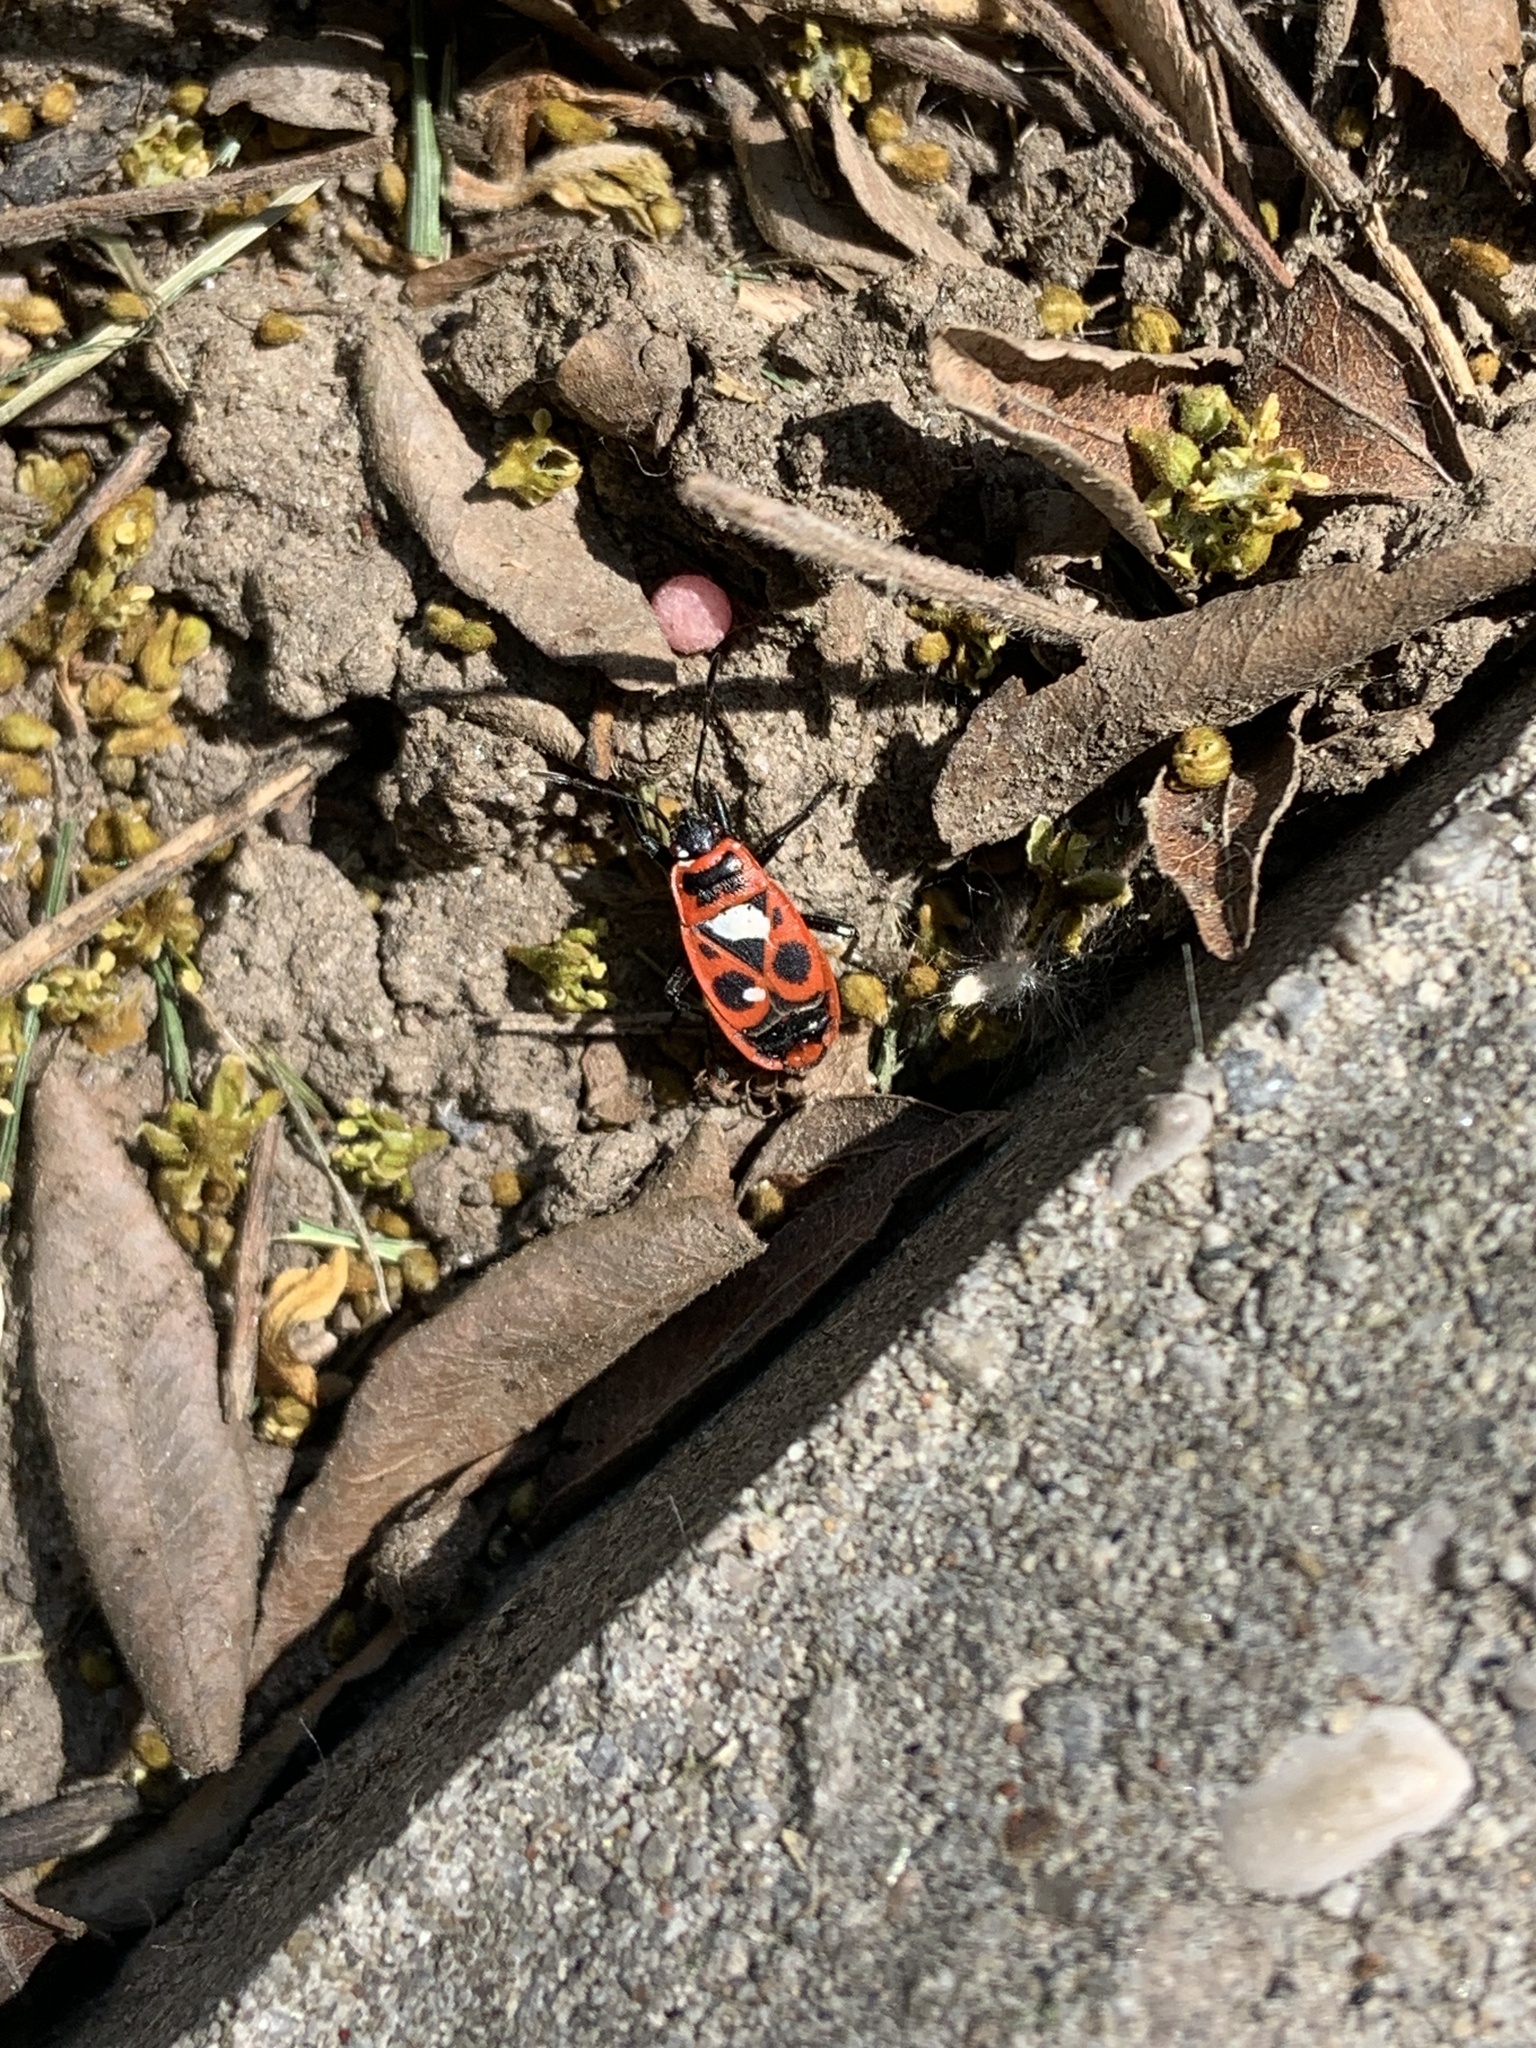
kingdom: Animalia
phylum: Arthropoda
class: Insecta
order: Hemiptera
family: Pyrrhocoridae
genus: Pyrrhocoris
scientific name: Pyrrhocoris apterus
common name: Firebug
